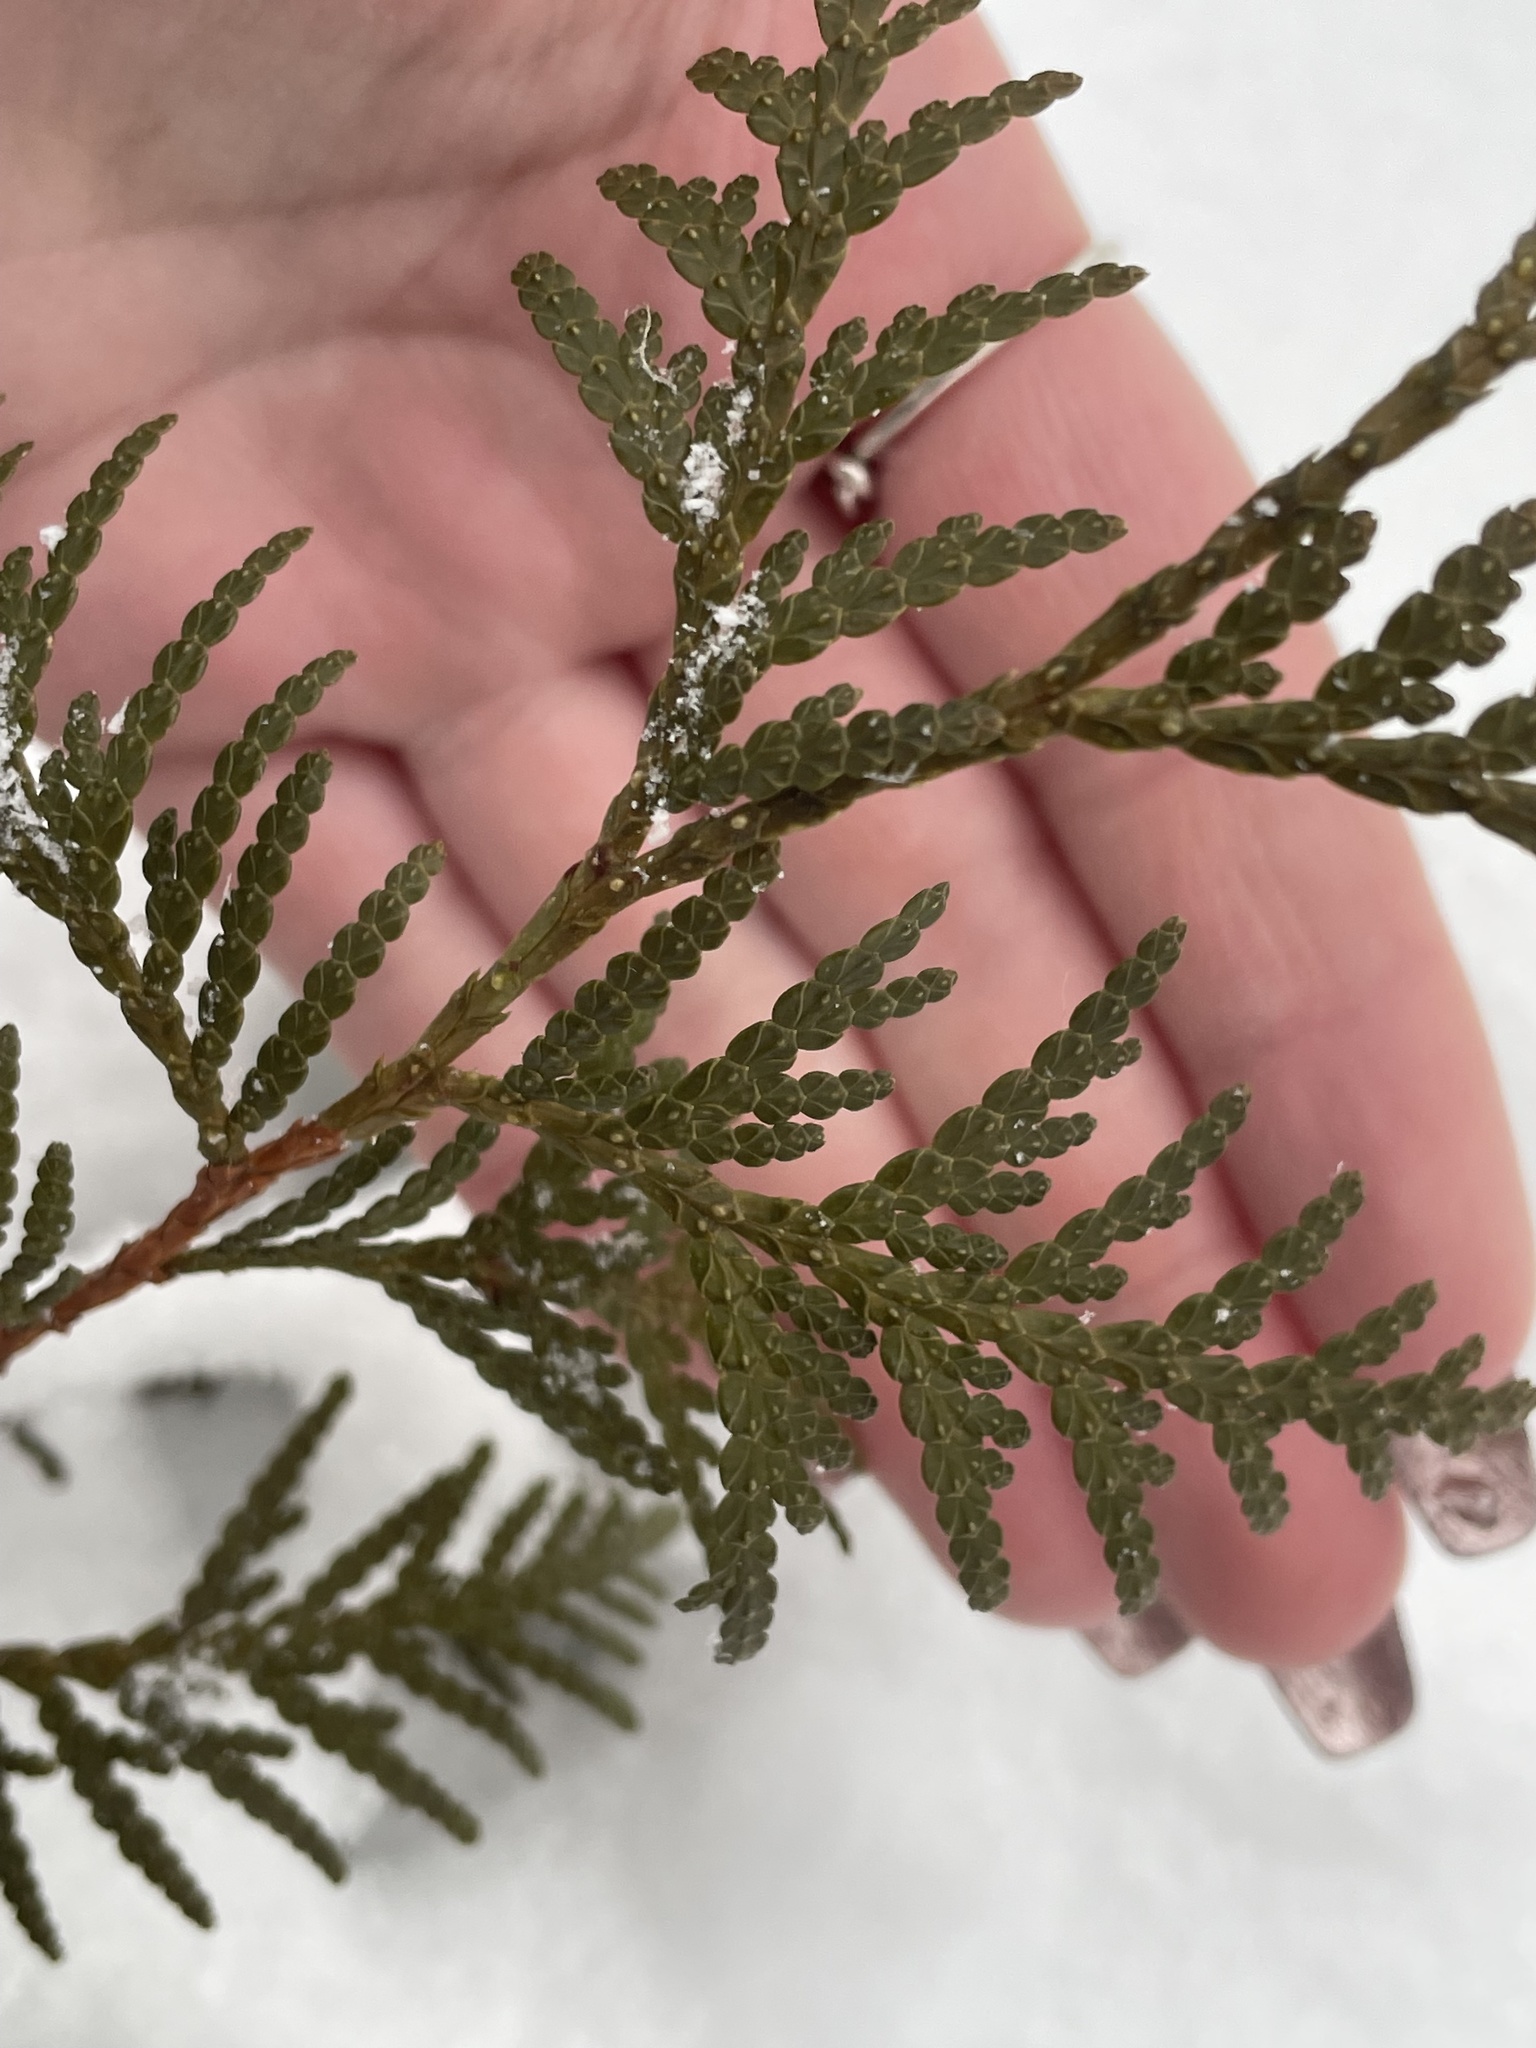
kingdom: Plantae
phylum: Tracheophyta
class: Pinopsida
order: Pinales
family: Cupressaceae
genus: Thuja
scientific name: Thuja occidentalis
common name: Northern white-cedar
